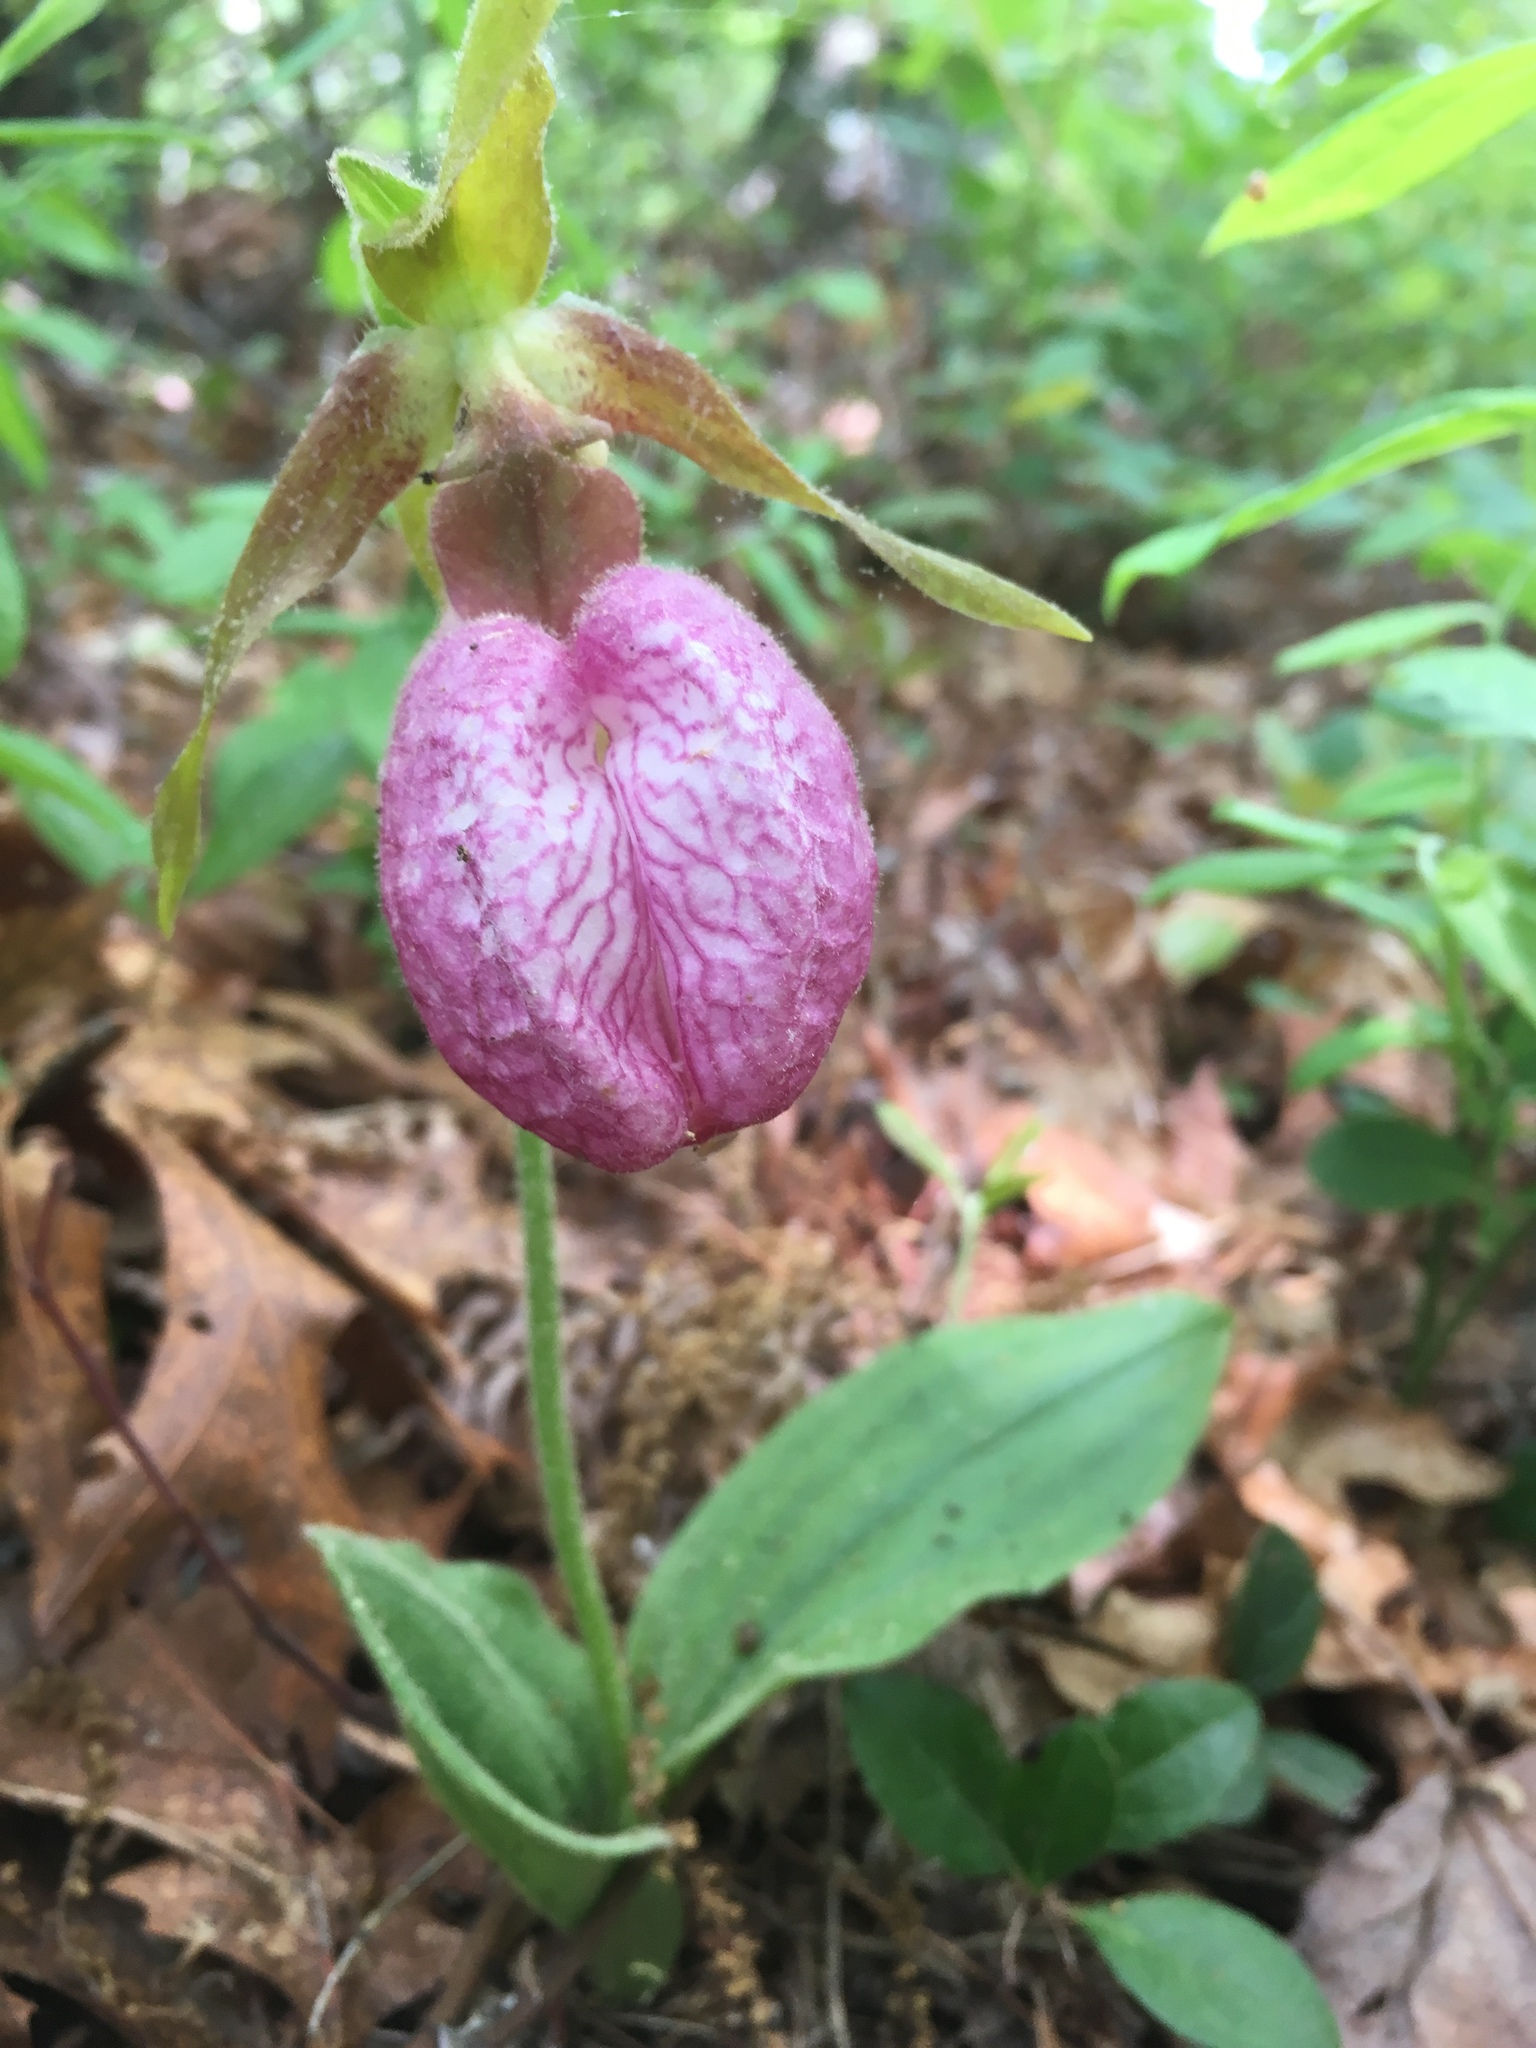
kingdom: Plantae
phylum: Tracheophyta
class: Liliopsida
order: Asparagales
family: Orchidaceae
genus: Cypripedium
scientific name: Cypripedium acaule
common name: Pink lady's-slipper
